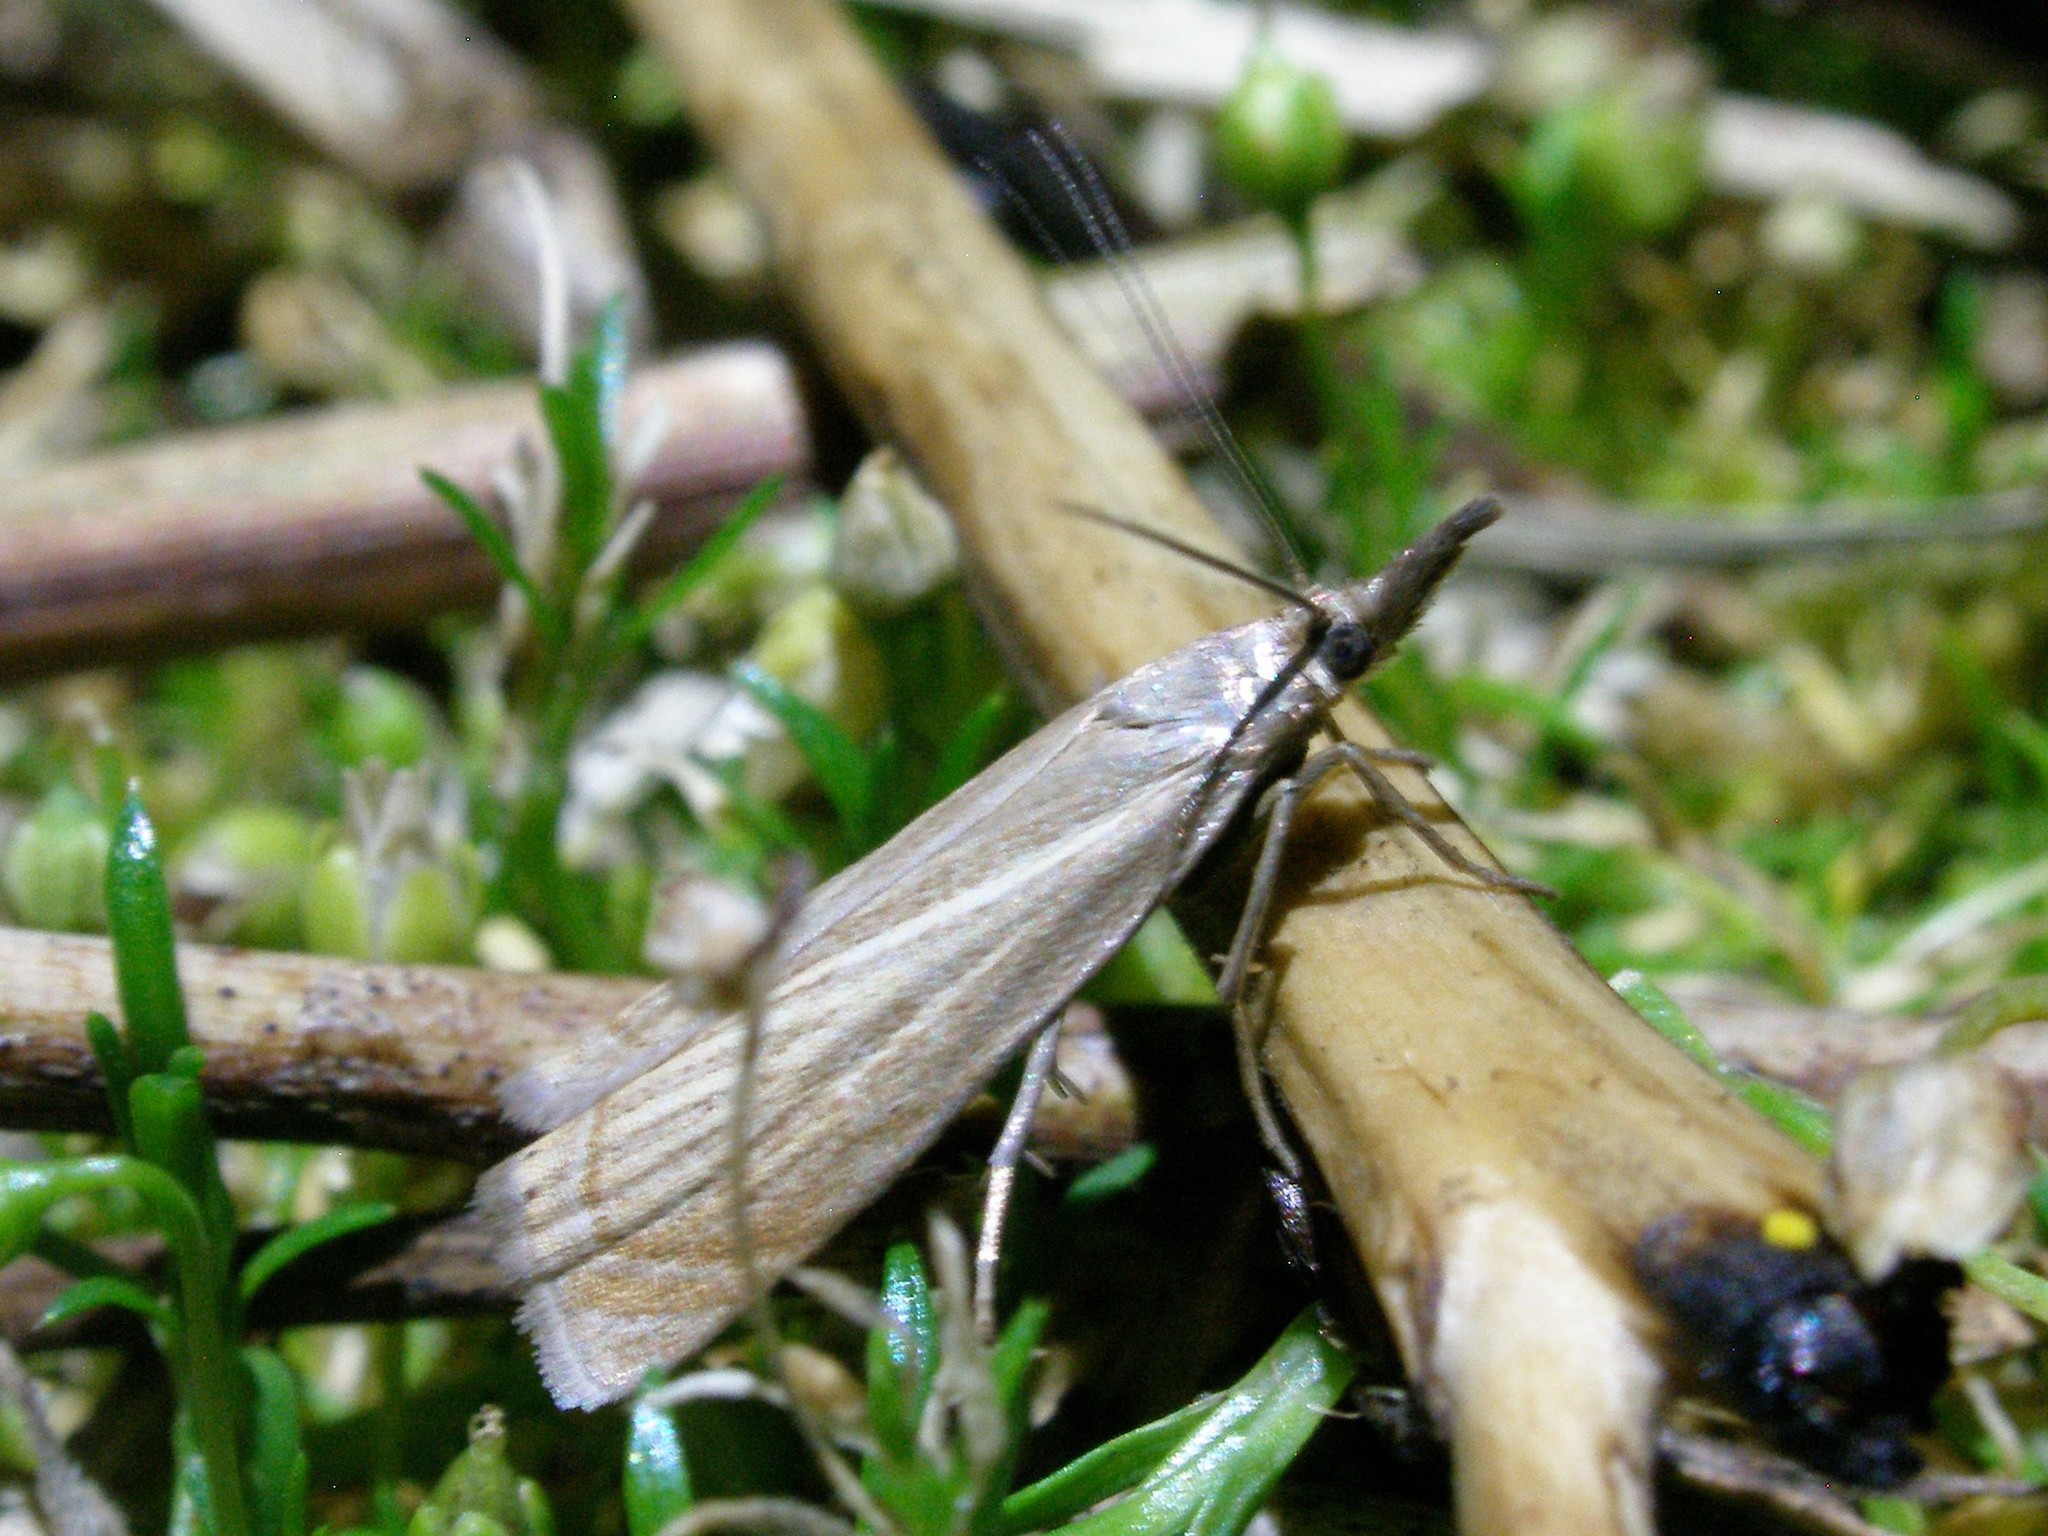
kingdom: Animalia
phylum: Arthropoda
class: Insecta
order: Lepidoptera
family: Crambidae
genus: Chrysoteuchia
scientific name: Chrysoteuchia culmella
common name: Garden grass-veneer
